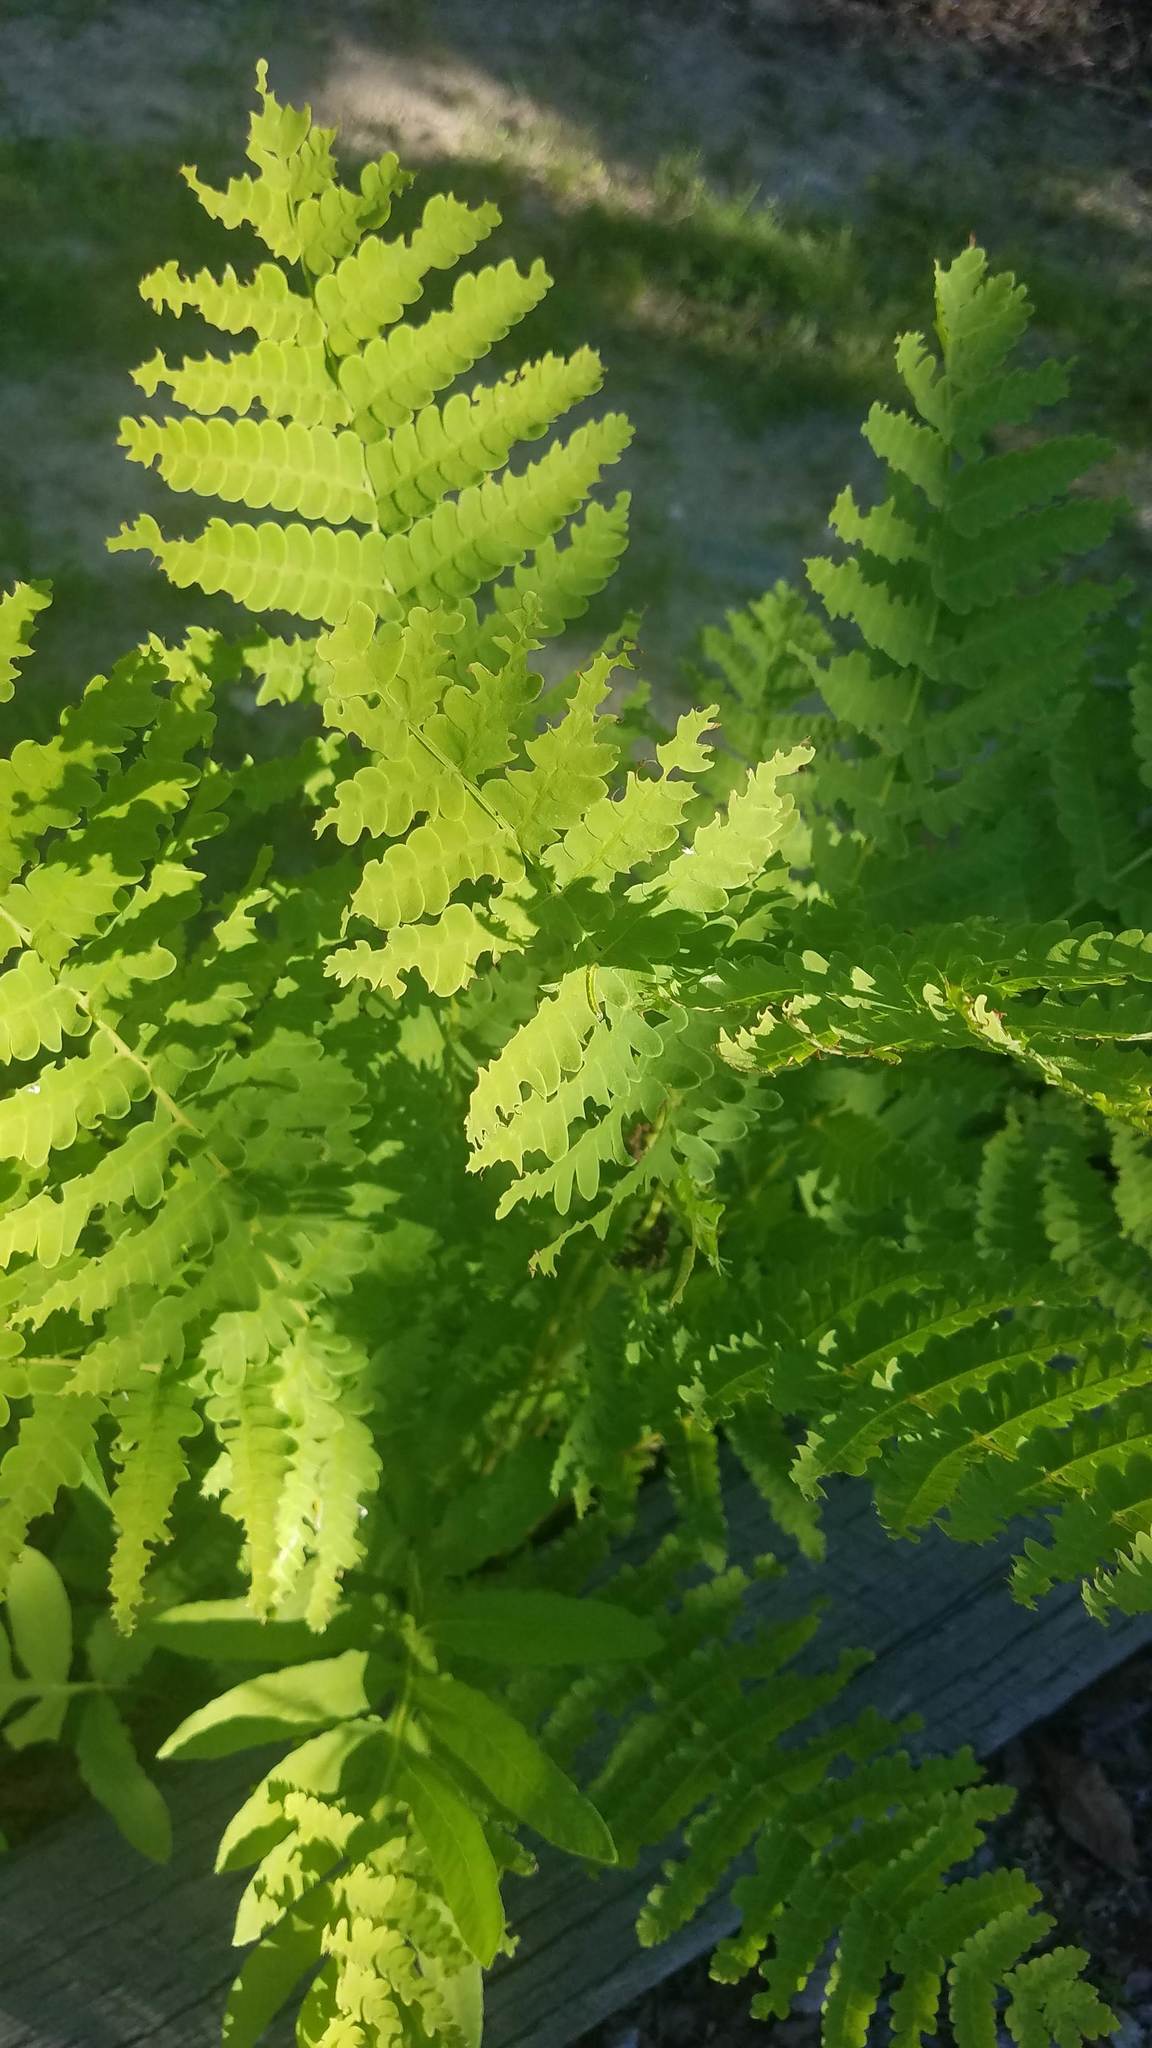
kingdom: Plantae
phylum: Tracheophyta
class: Polypodiopsida
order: Osmundales
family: Osmundaceae
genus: Claytosmunda
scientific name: Claytosmunda claytoniana
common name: Clayton's fern
